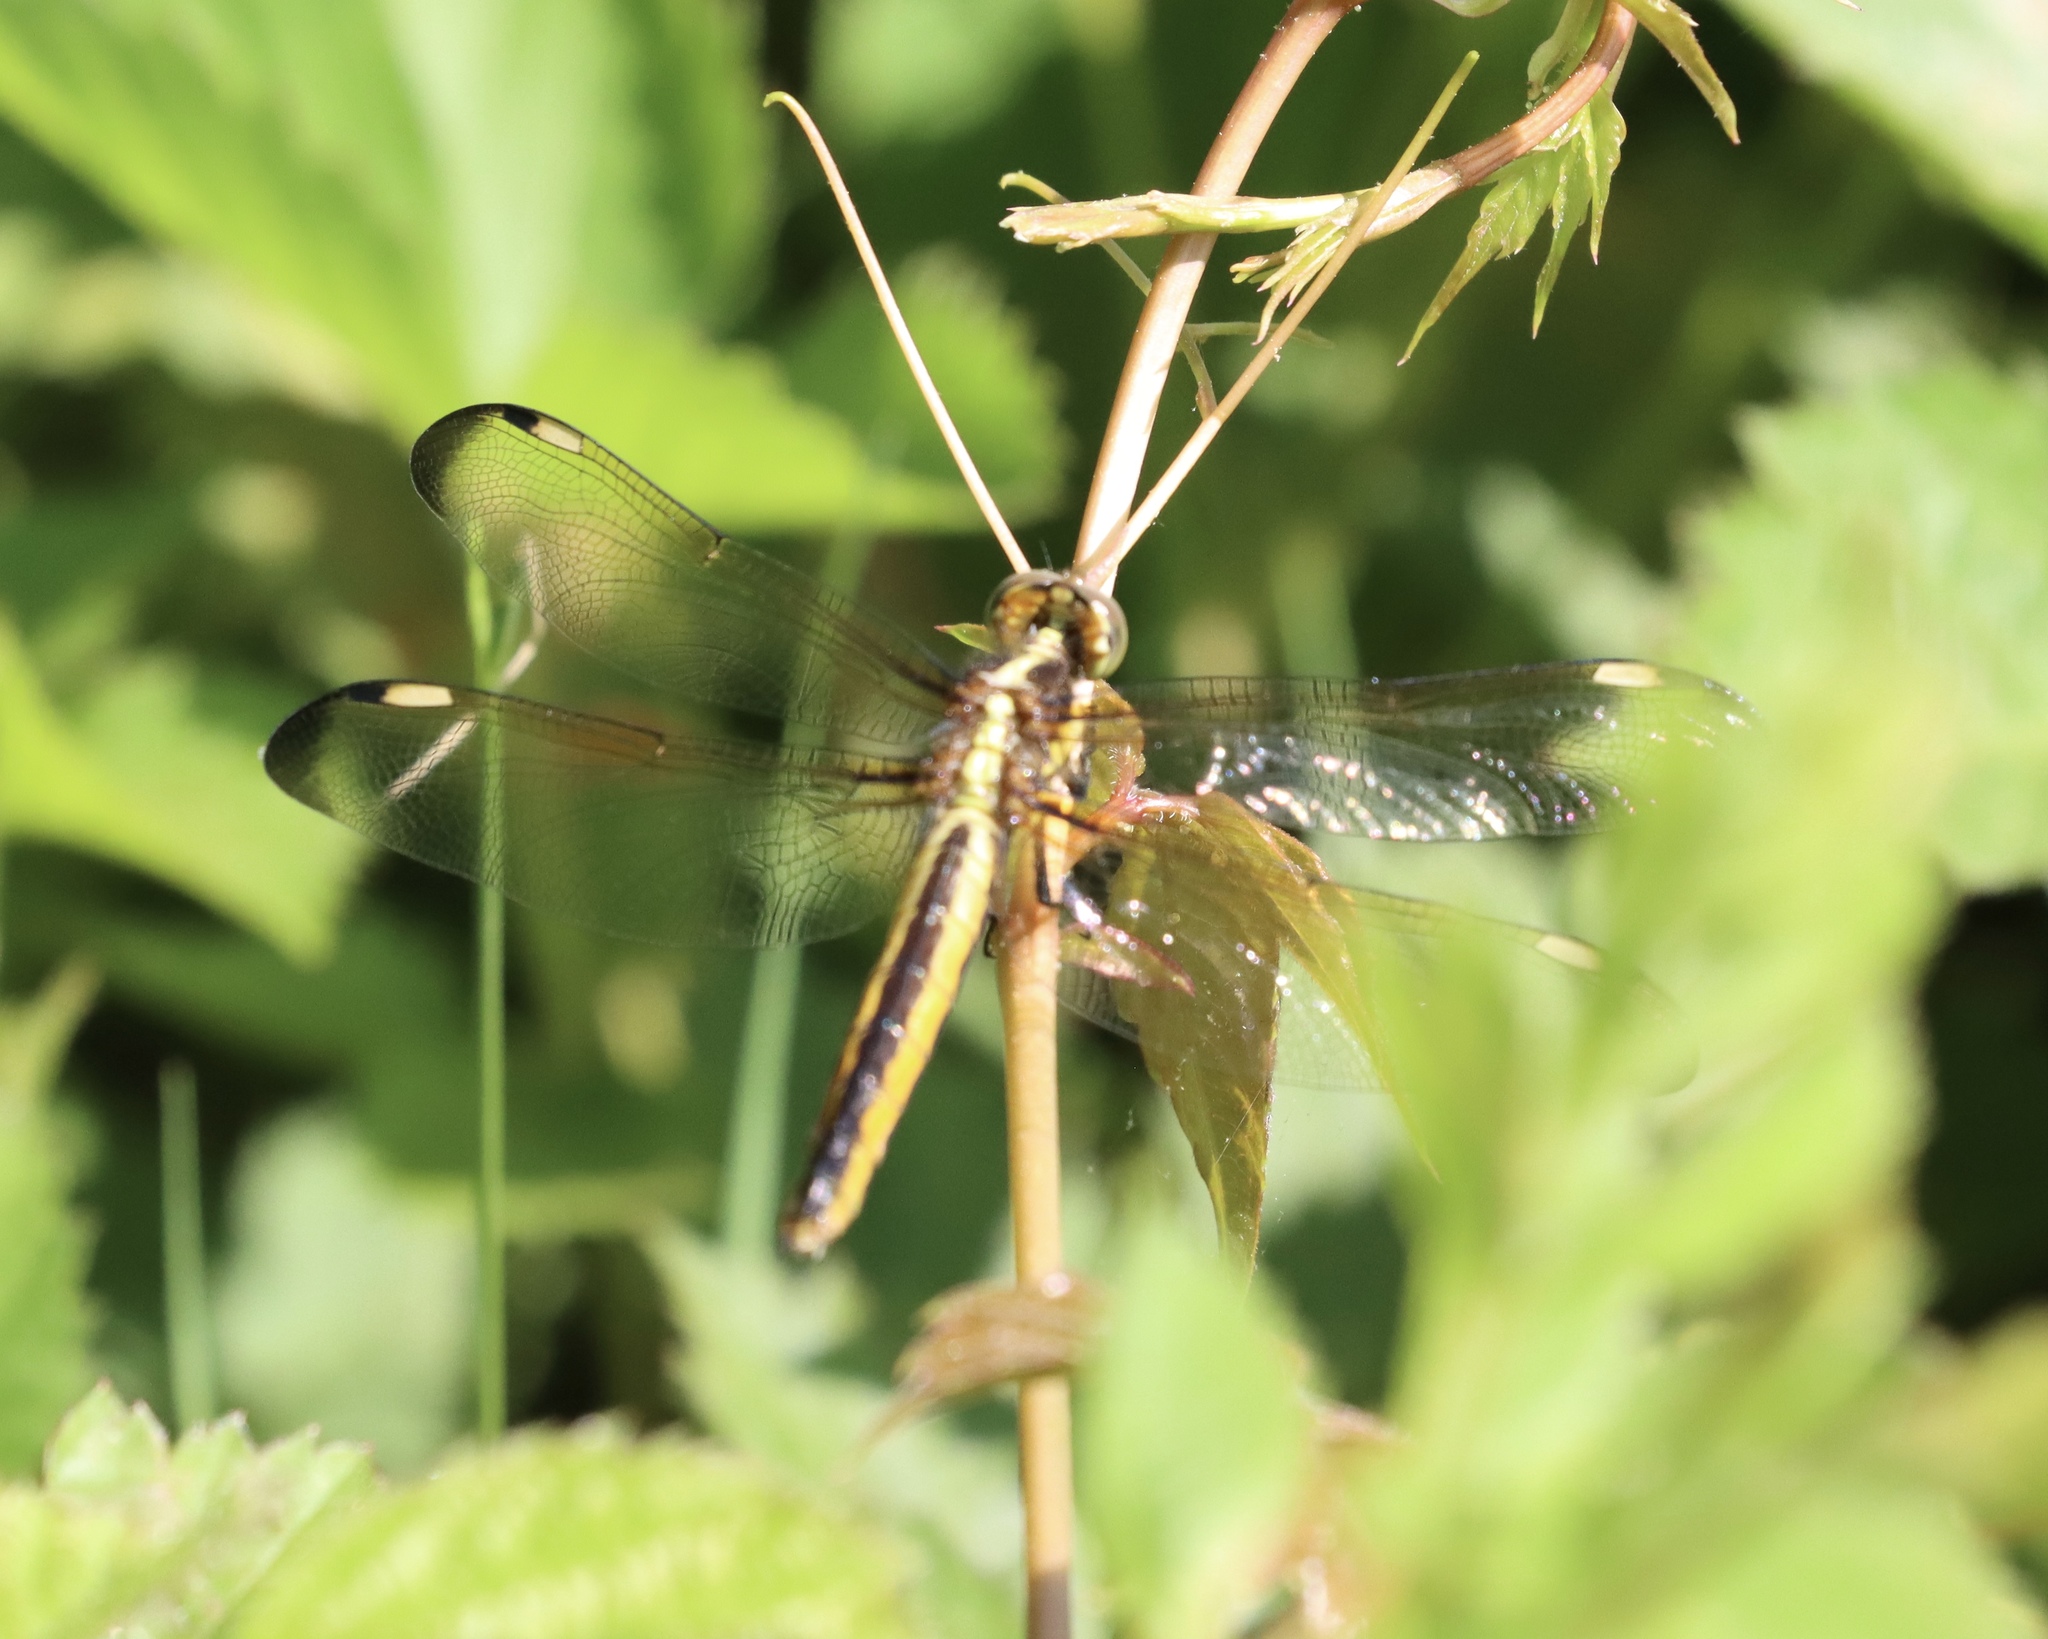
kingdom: Animalia
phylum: Arthropoda
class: Insecta
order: Odonata
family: Libellulidae
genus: Libellula
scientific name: Libellula cyanea
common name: Spangled skimmer
